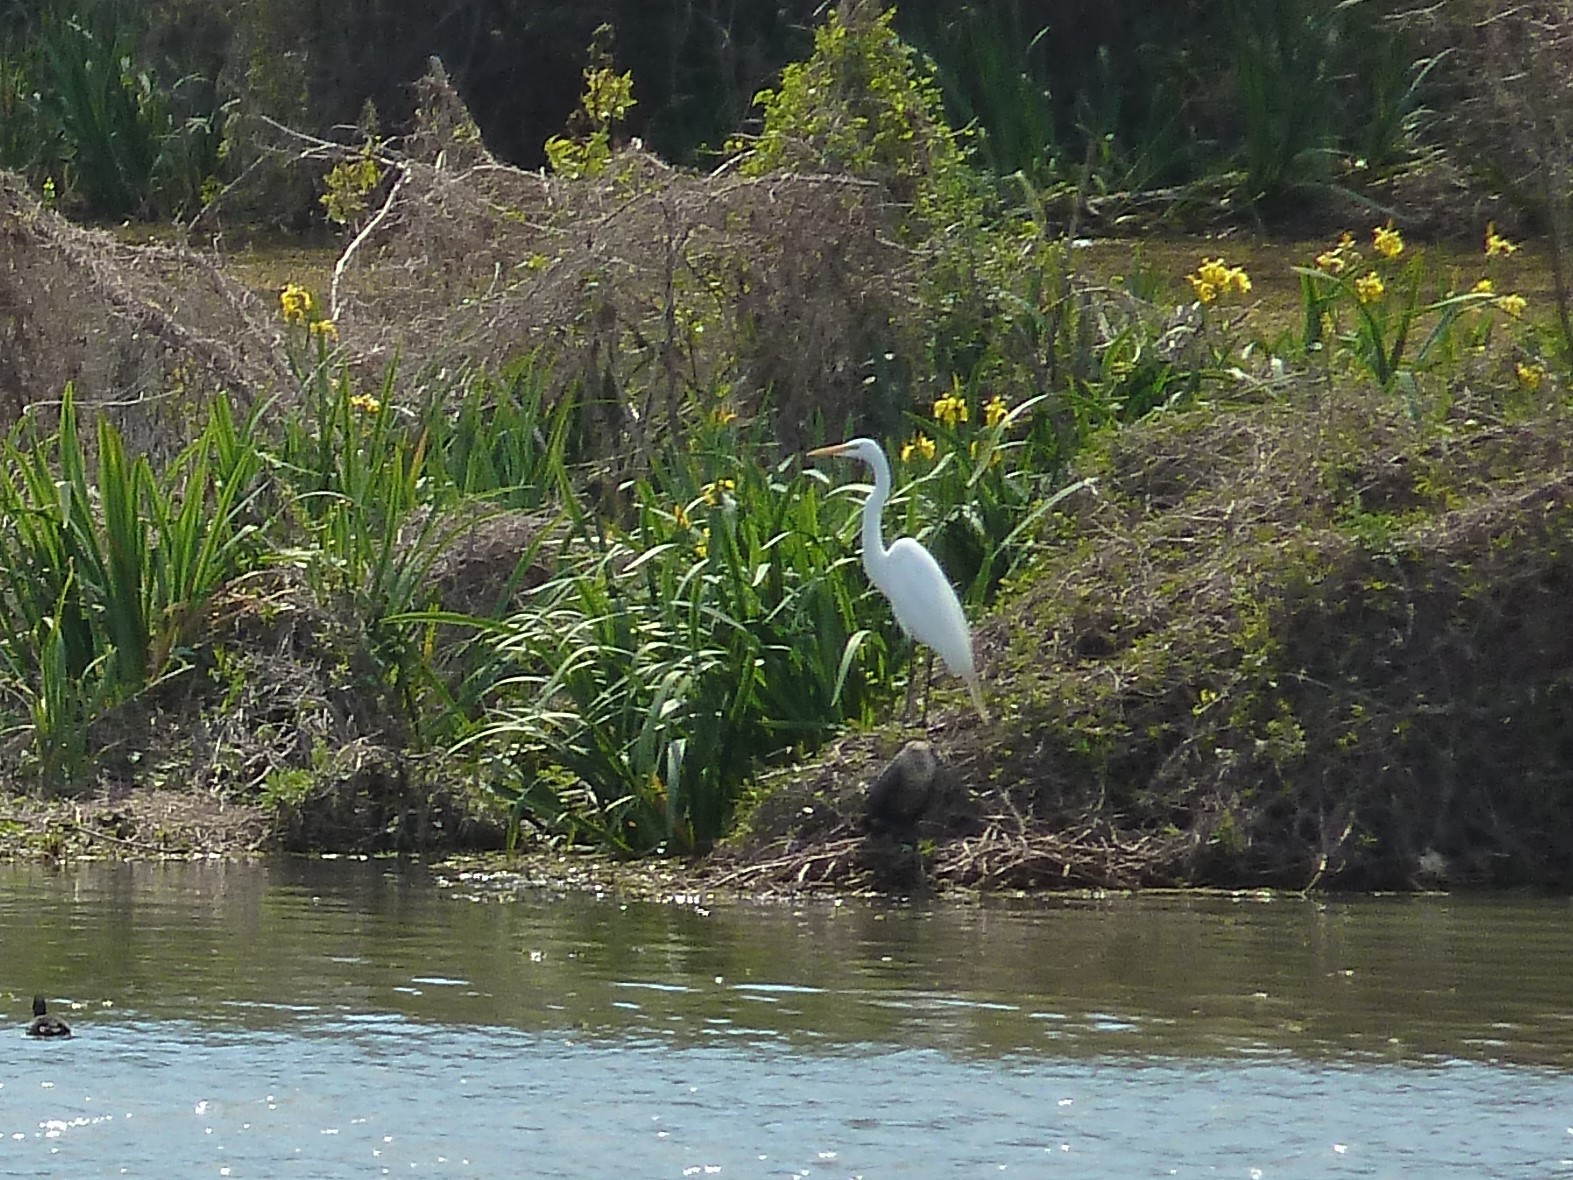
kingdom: Animalia
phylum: Chordata
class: Aves
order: Pelecaniformes
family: Ardeidae
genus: Ardea
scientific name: Ardea alba
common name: Great egret
